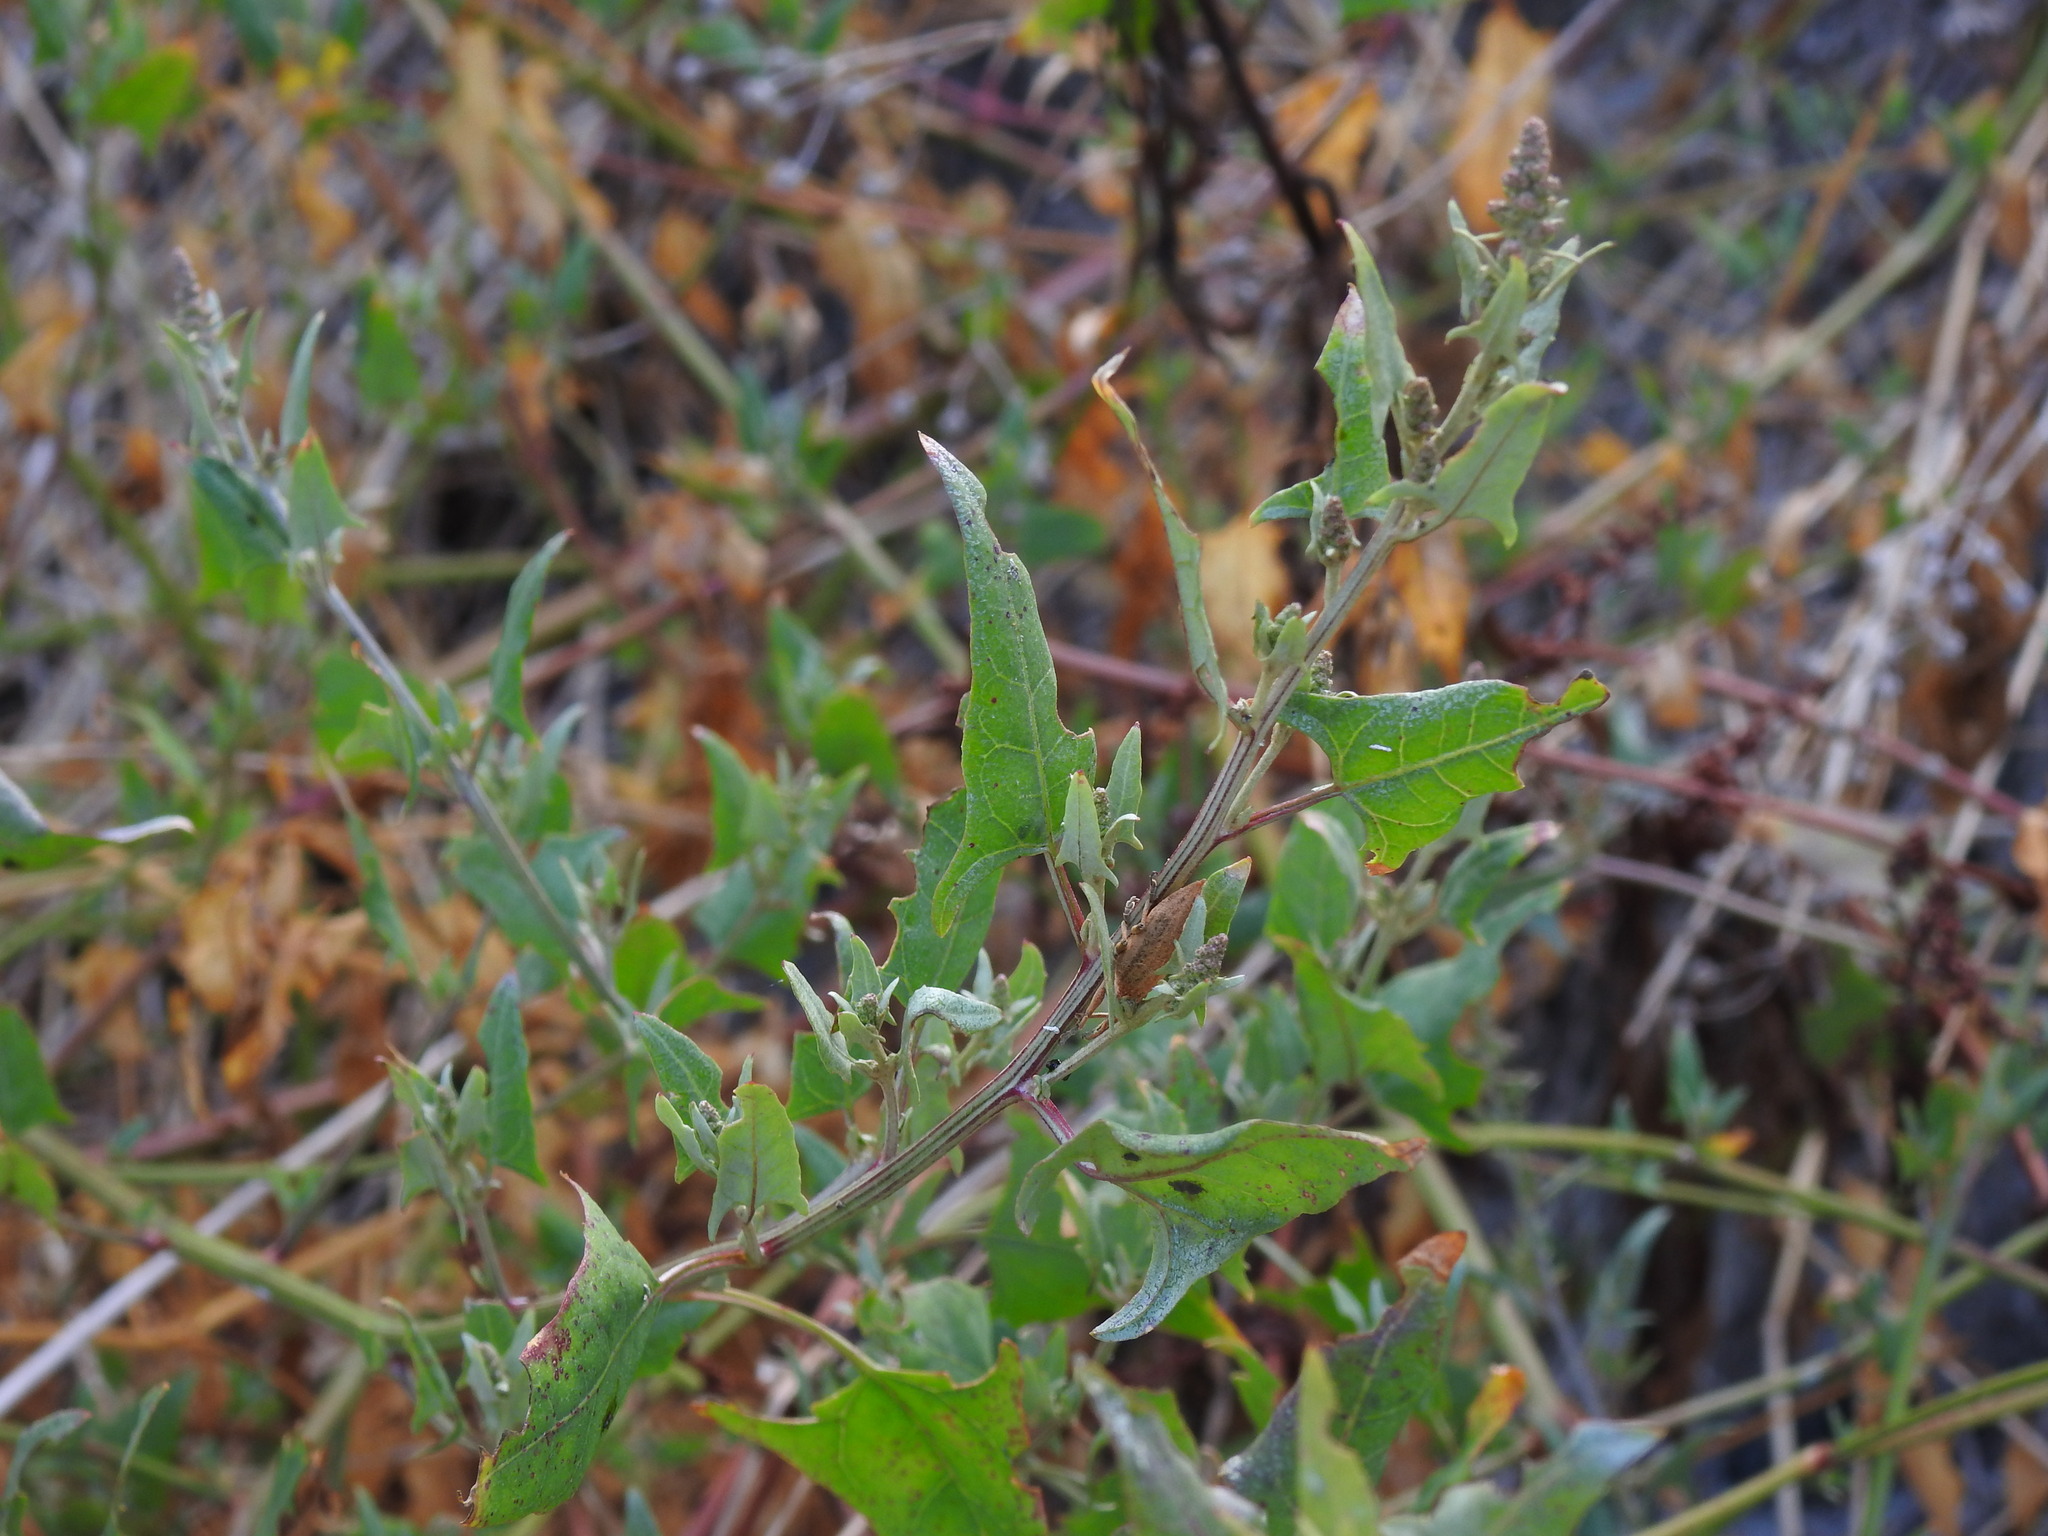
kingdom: Plantae
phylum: Tracheophyta
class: Magnoliopsida
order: Caryophyllales
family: Amaranthaceae
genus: Atriplex
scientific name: Atriplex prostrata
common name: Spear-leaved orache
